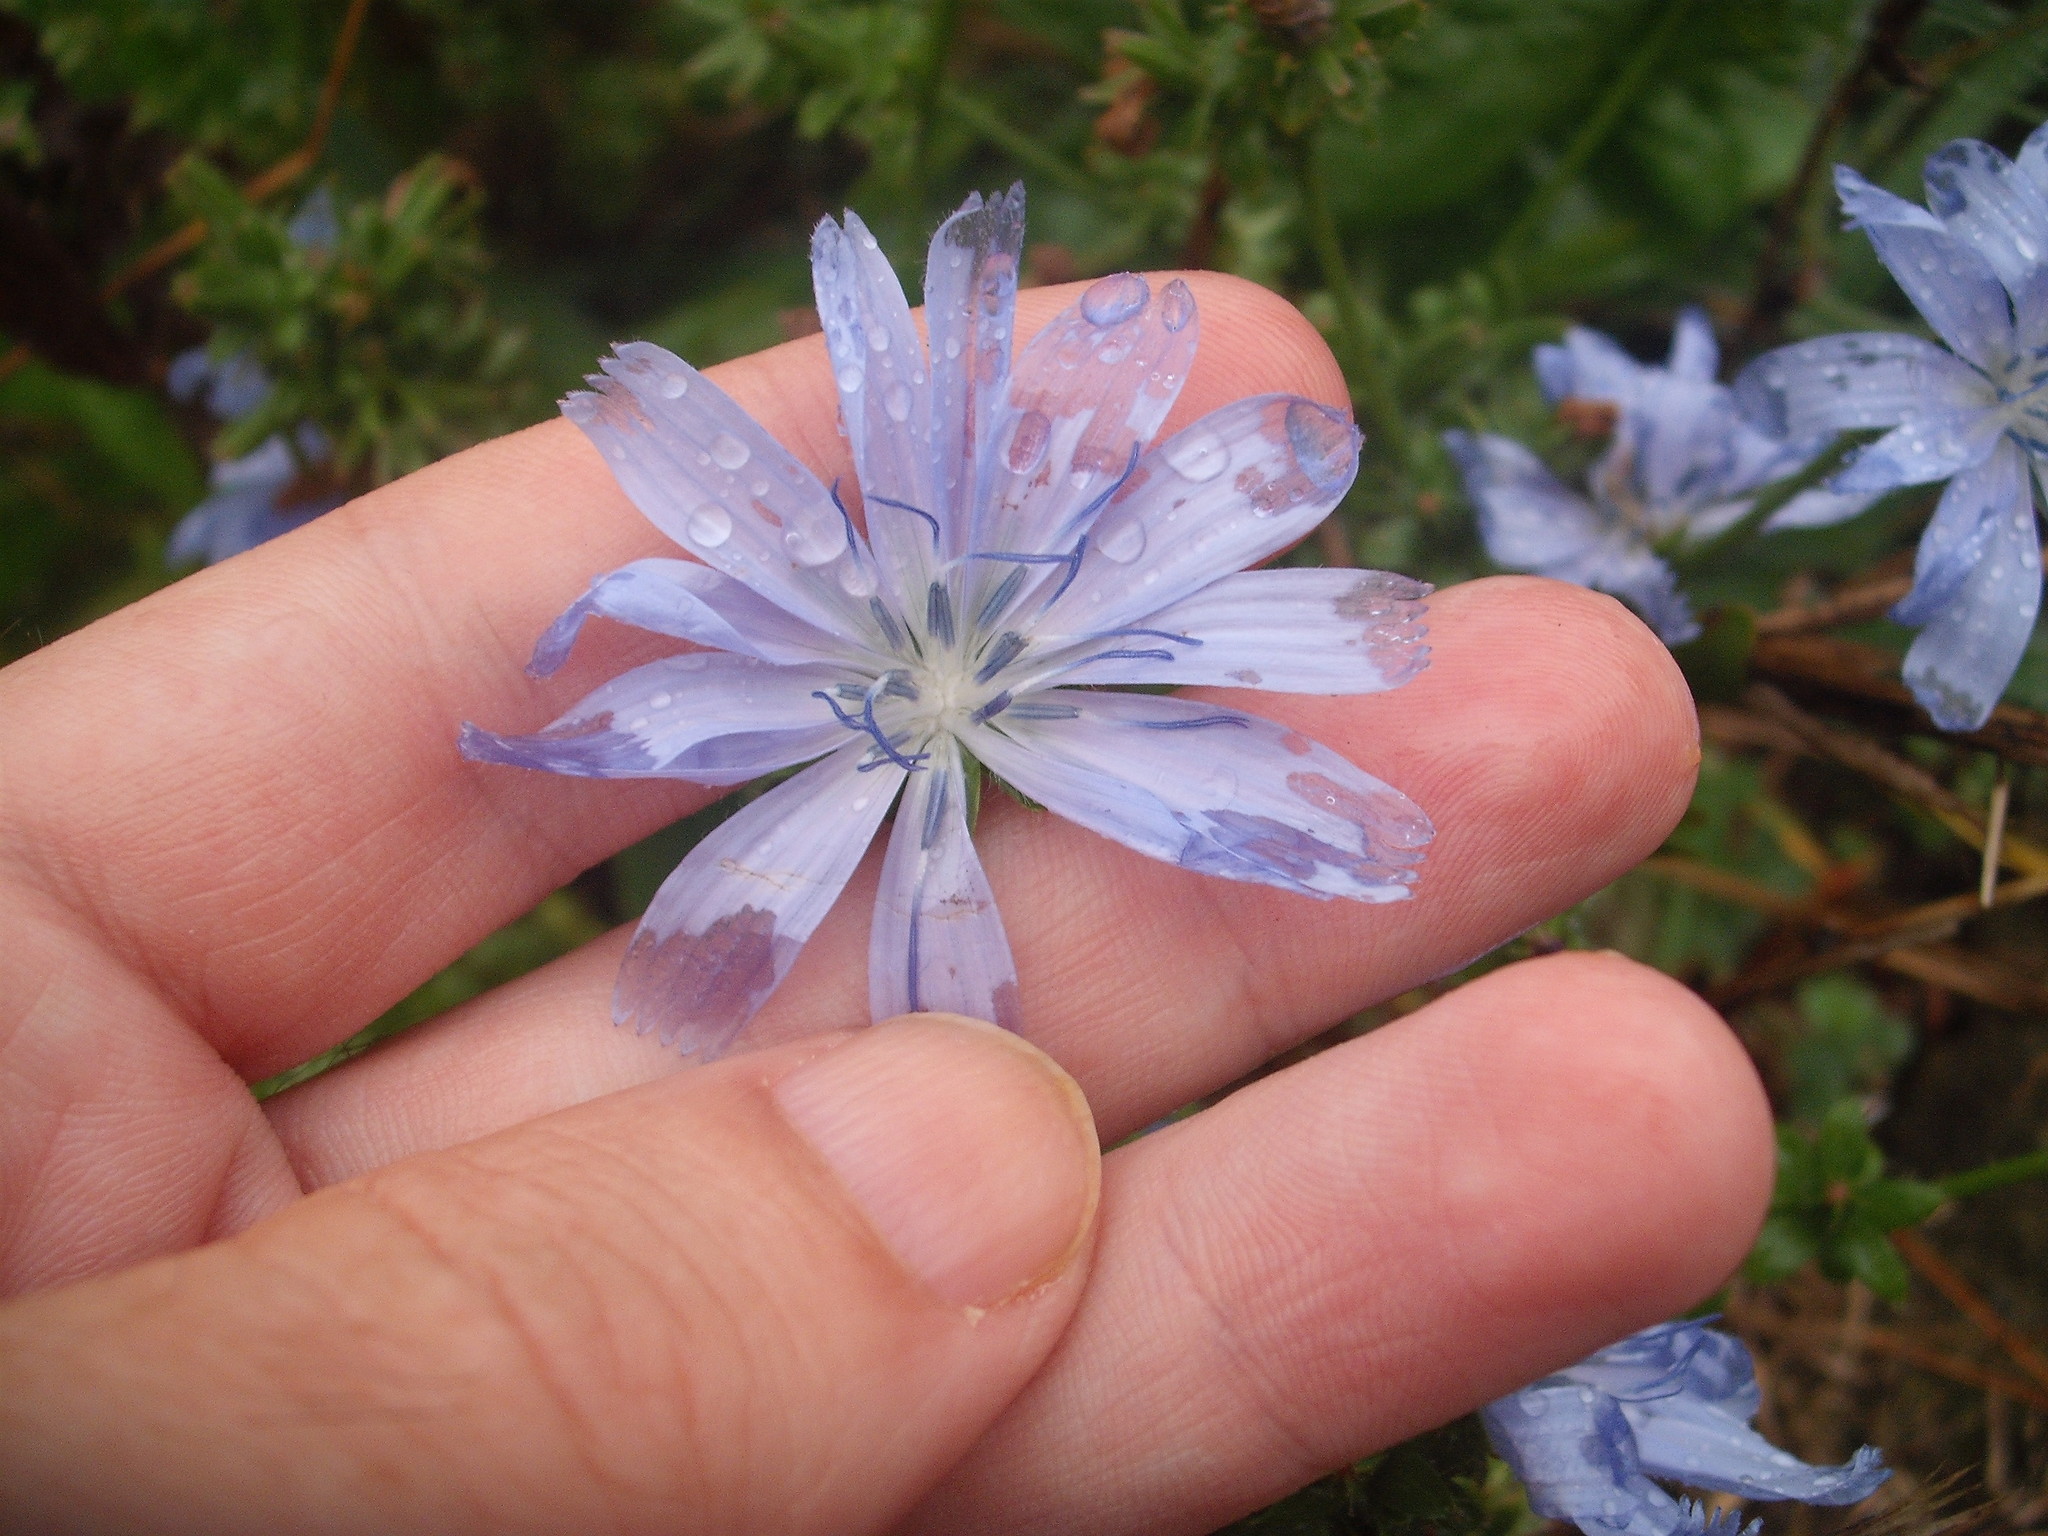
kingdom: Plantae
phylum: Tracheophyta
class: Magnoliopsida
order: Asterales
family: Asteraceae
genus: Cichorium
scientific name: Cichorium intybus
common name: Chicory
